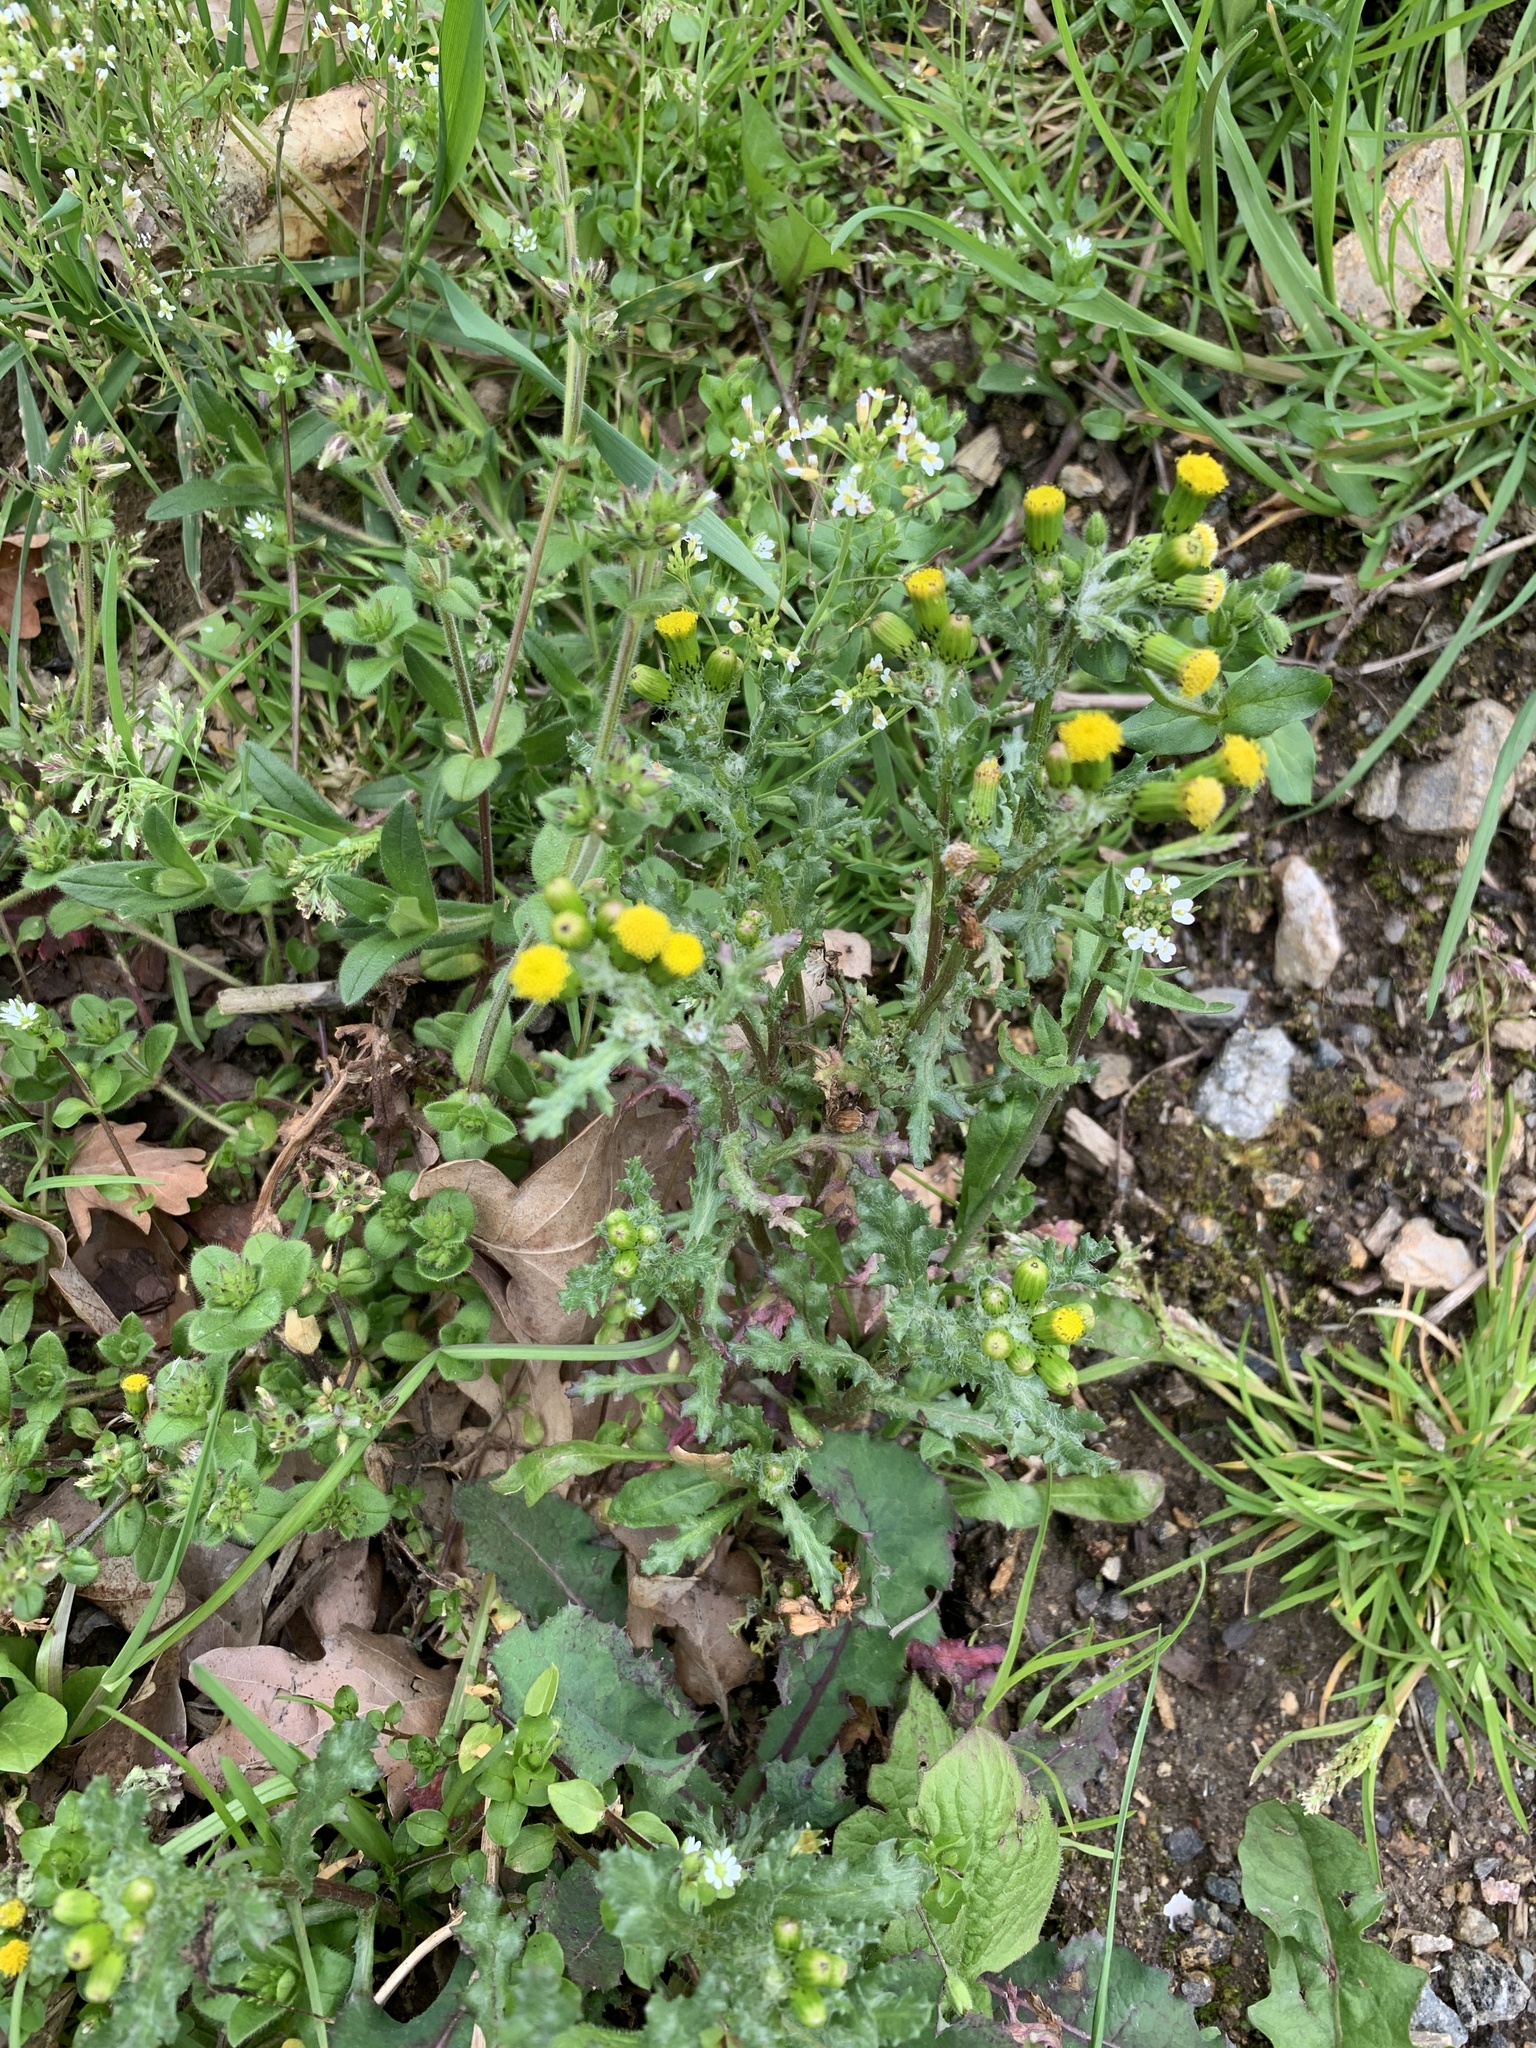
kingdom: Plantae
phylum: Tracheophyta
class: Magnoliopsida
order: Asterales
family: Asteraceae
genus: Senecio
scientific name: Senecio vulgaris
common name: Old-man-in-the-spring
